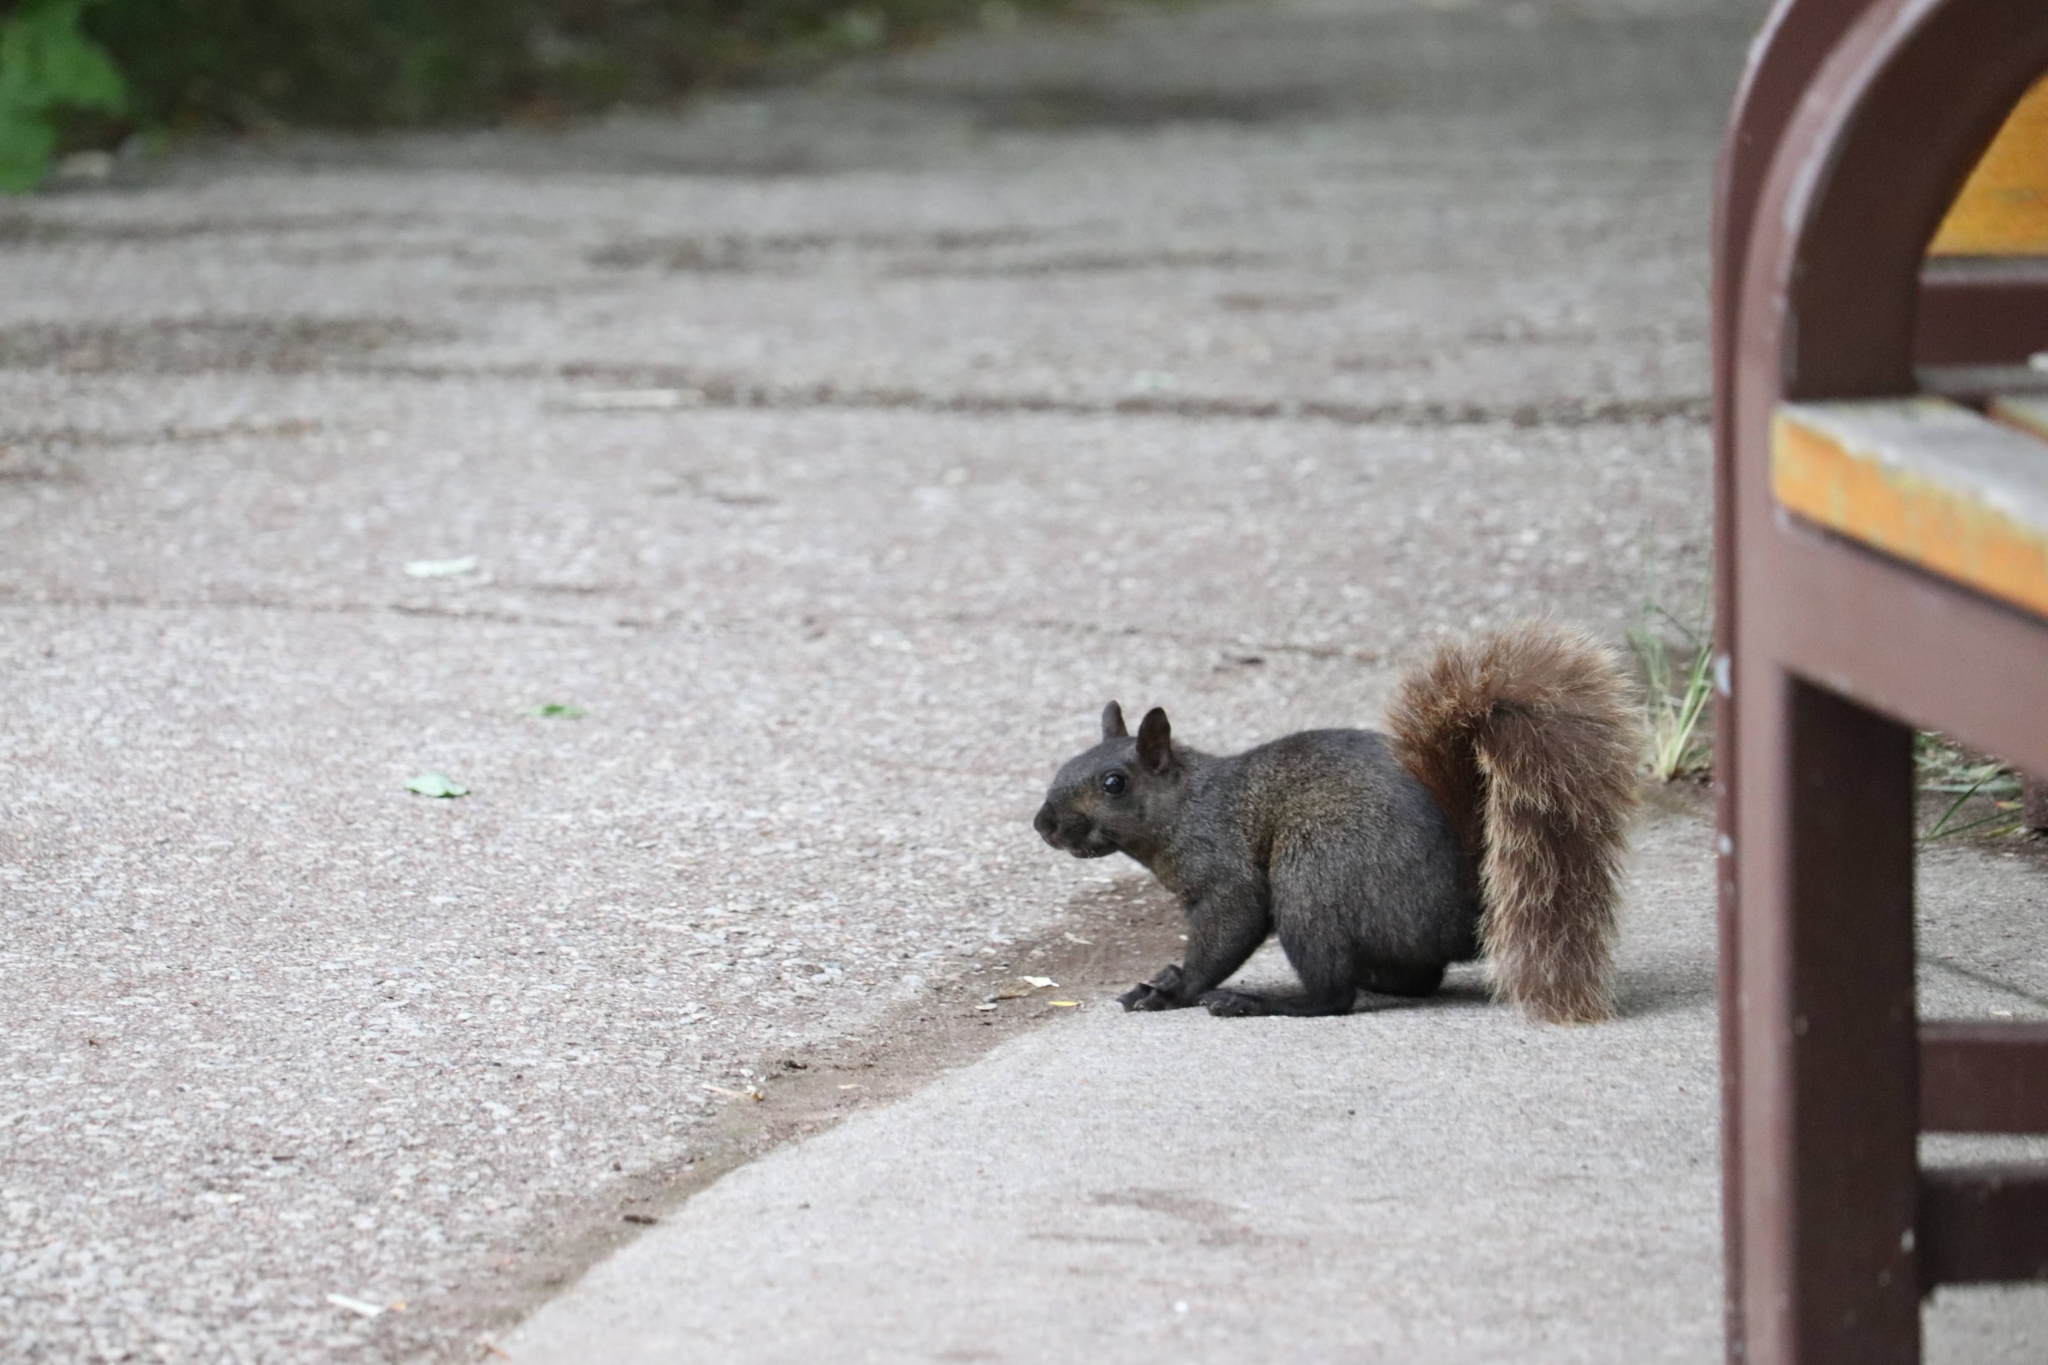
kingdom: Animalia
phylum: Chordata
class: Mammalia
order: Rodentia
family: Sciuridae
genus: Sciurus
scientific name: Sciurus carolinensis
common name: Eastern gray squirrel
